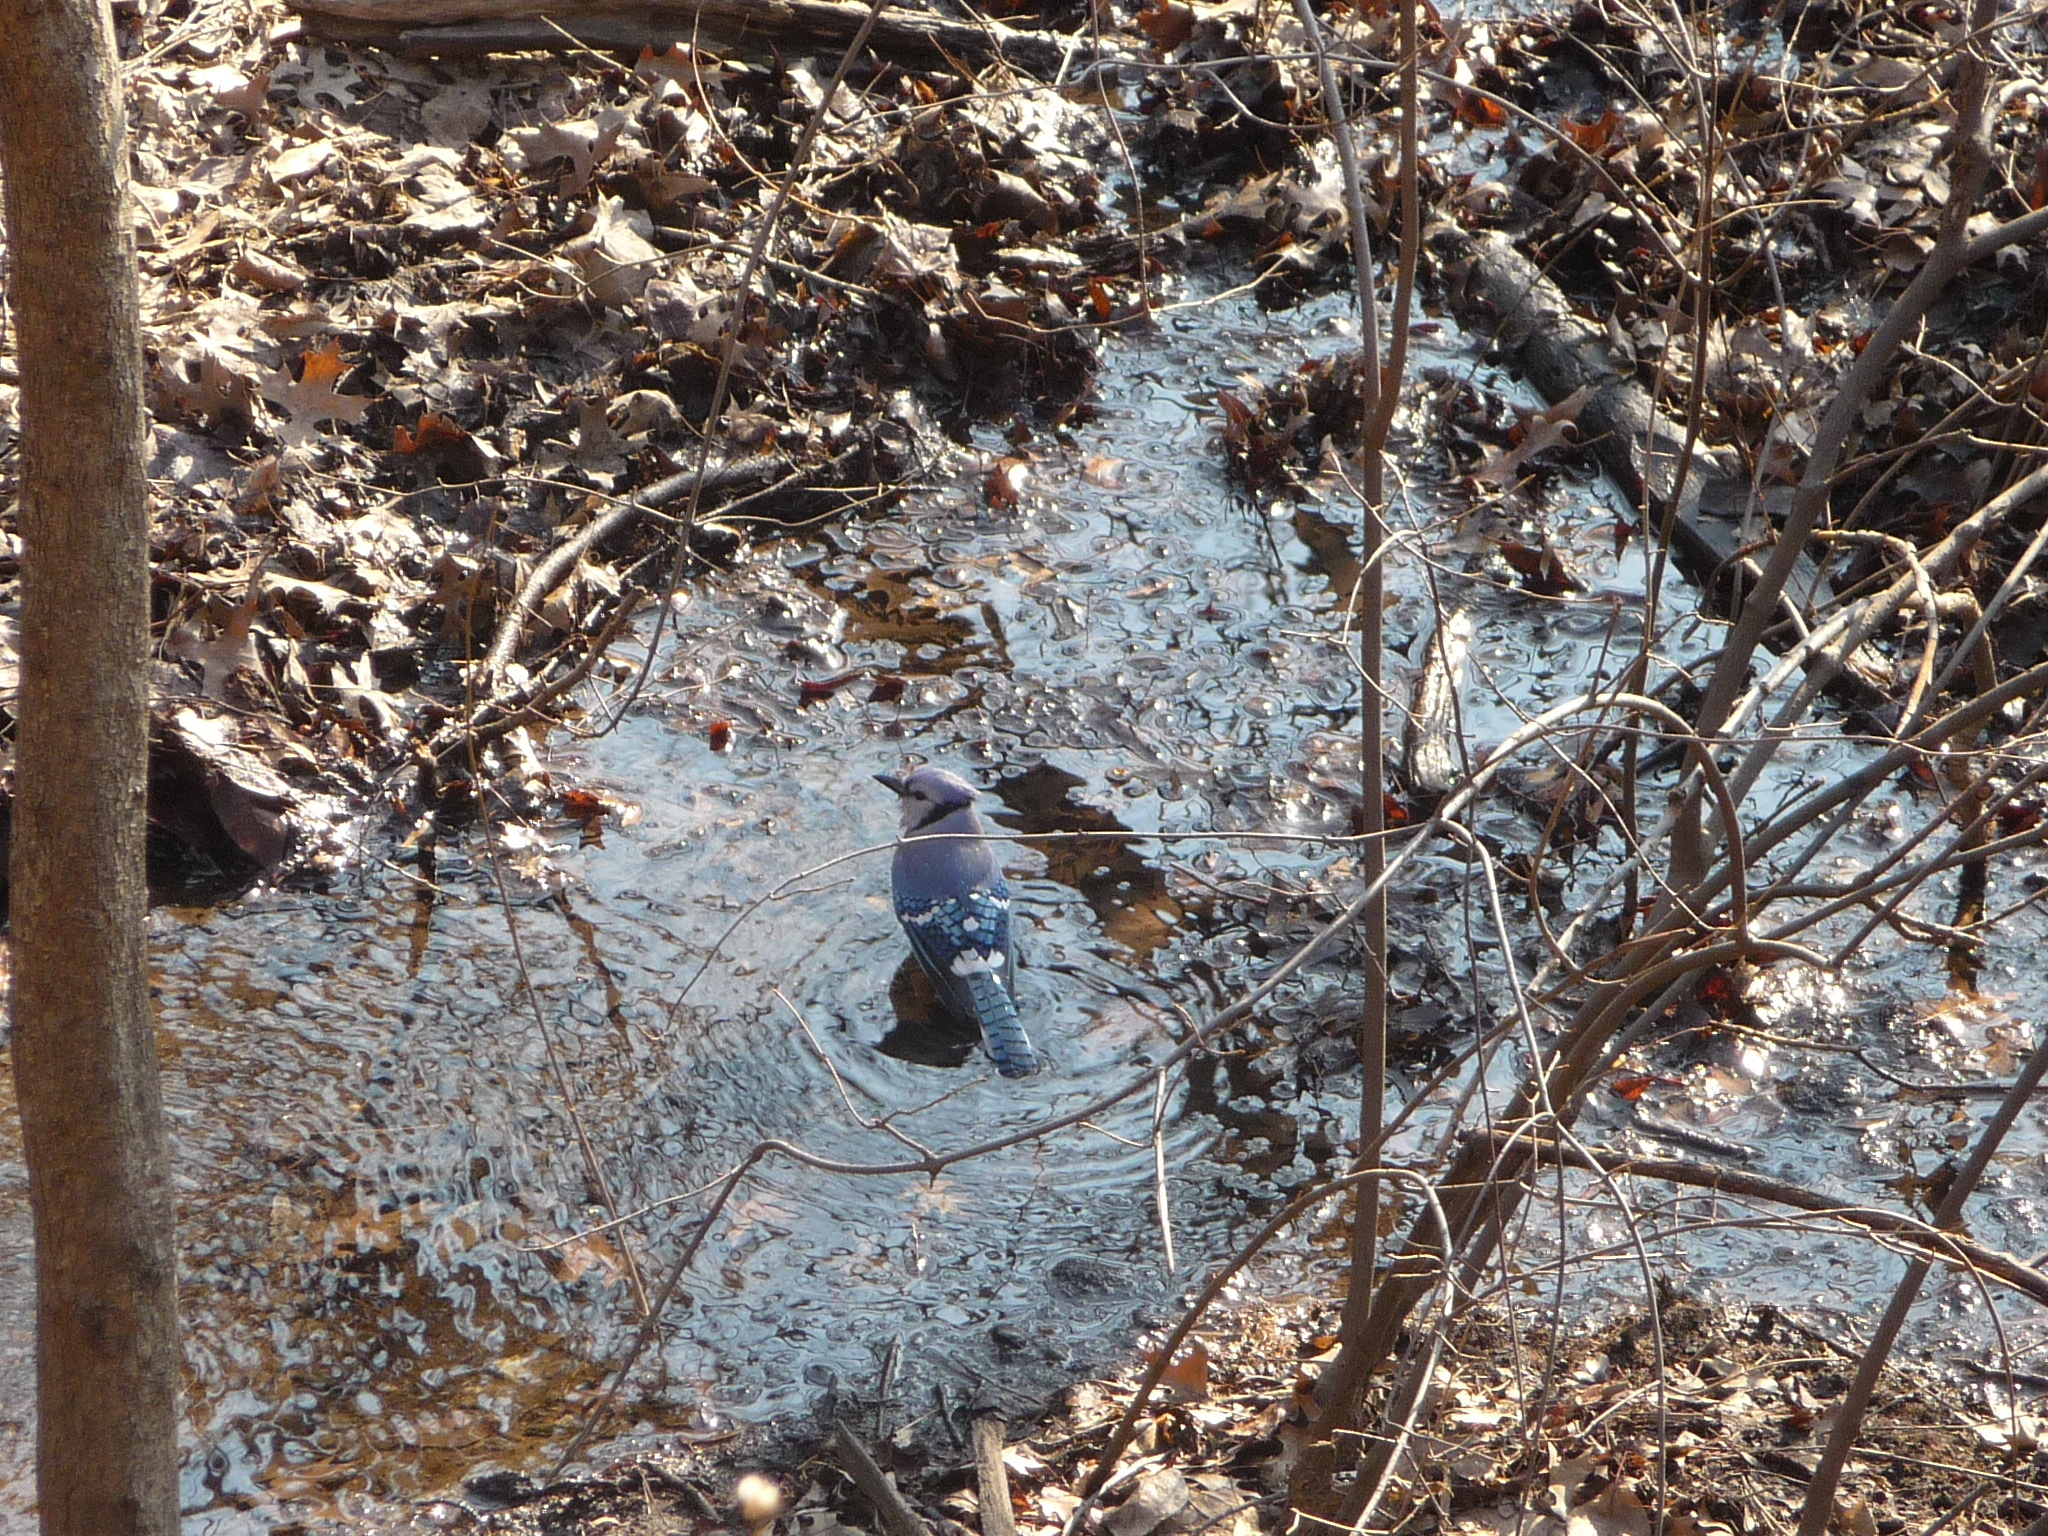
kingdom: Animalia
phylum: Chordata
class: Aves
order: Passeriformes
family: Corvidae
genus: Cyanocitta
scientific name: Cyanocitta cristata
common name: Blue jay
